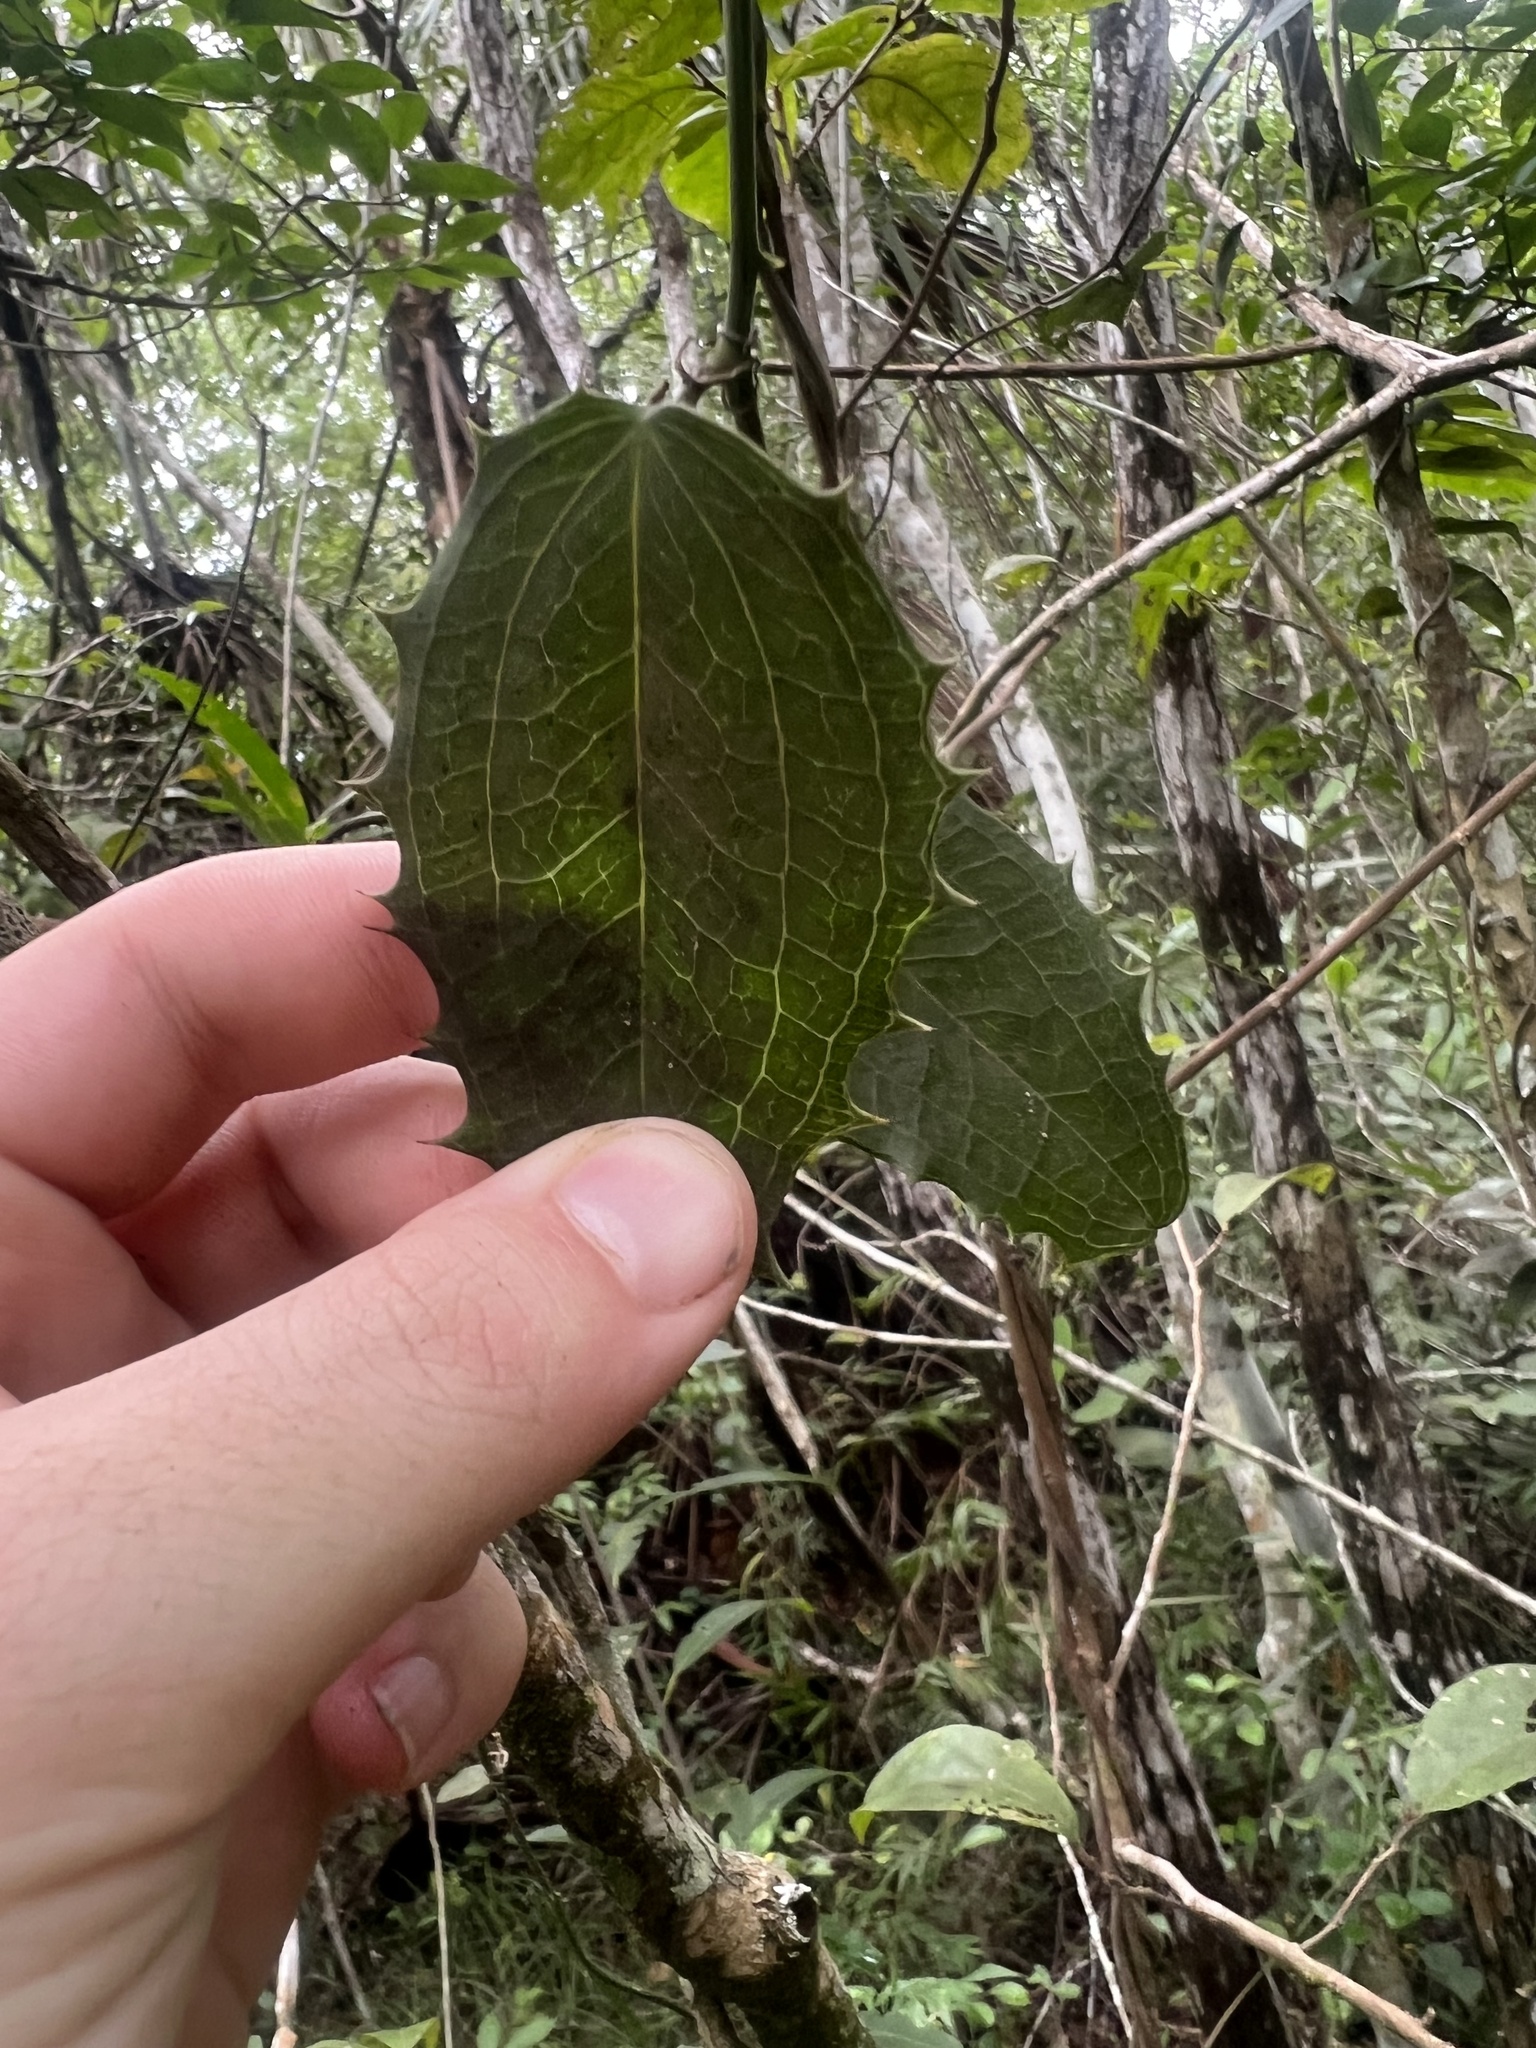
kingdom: Plantae
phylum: Tracheophyta
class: Liliopsida
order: Liliales
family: Smilacaceae
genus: Smilax
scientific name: Smilax havanensis
